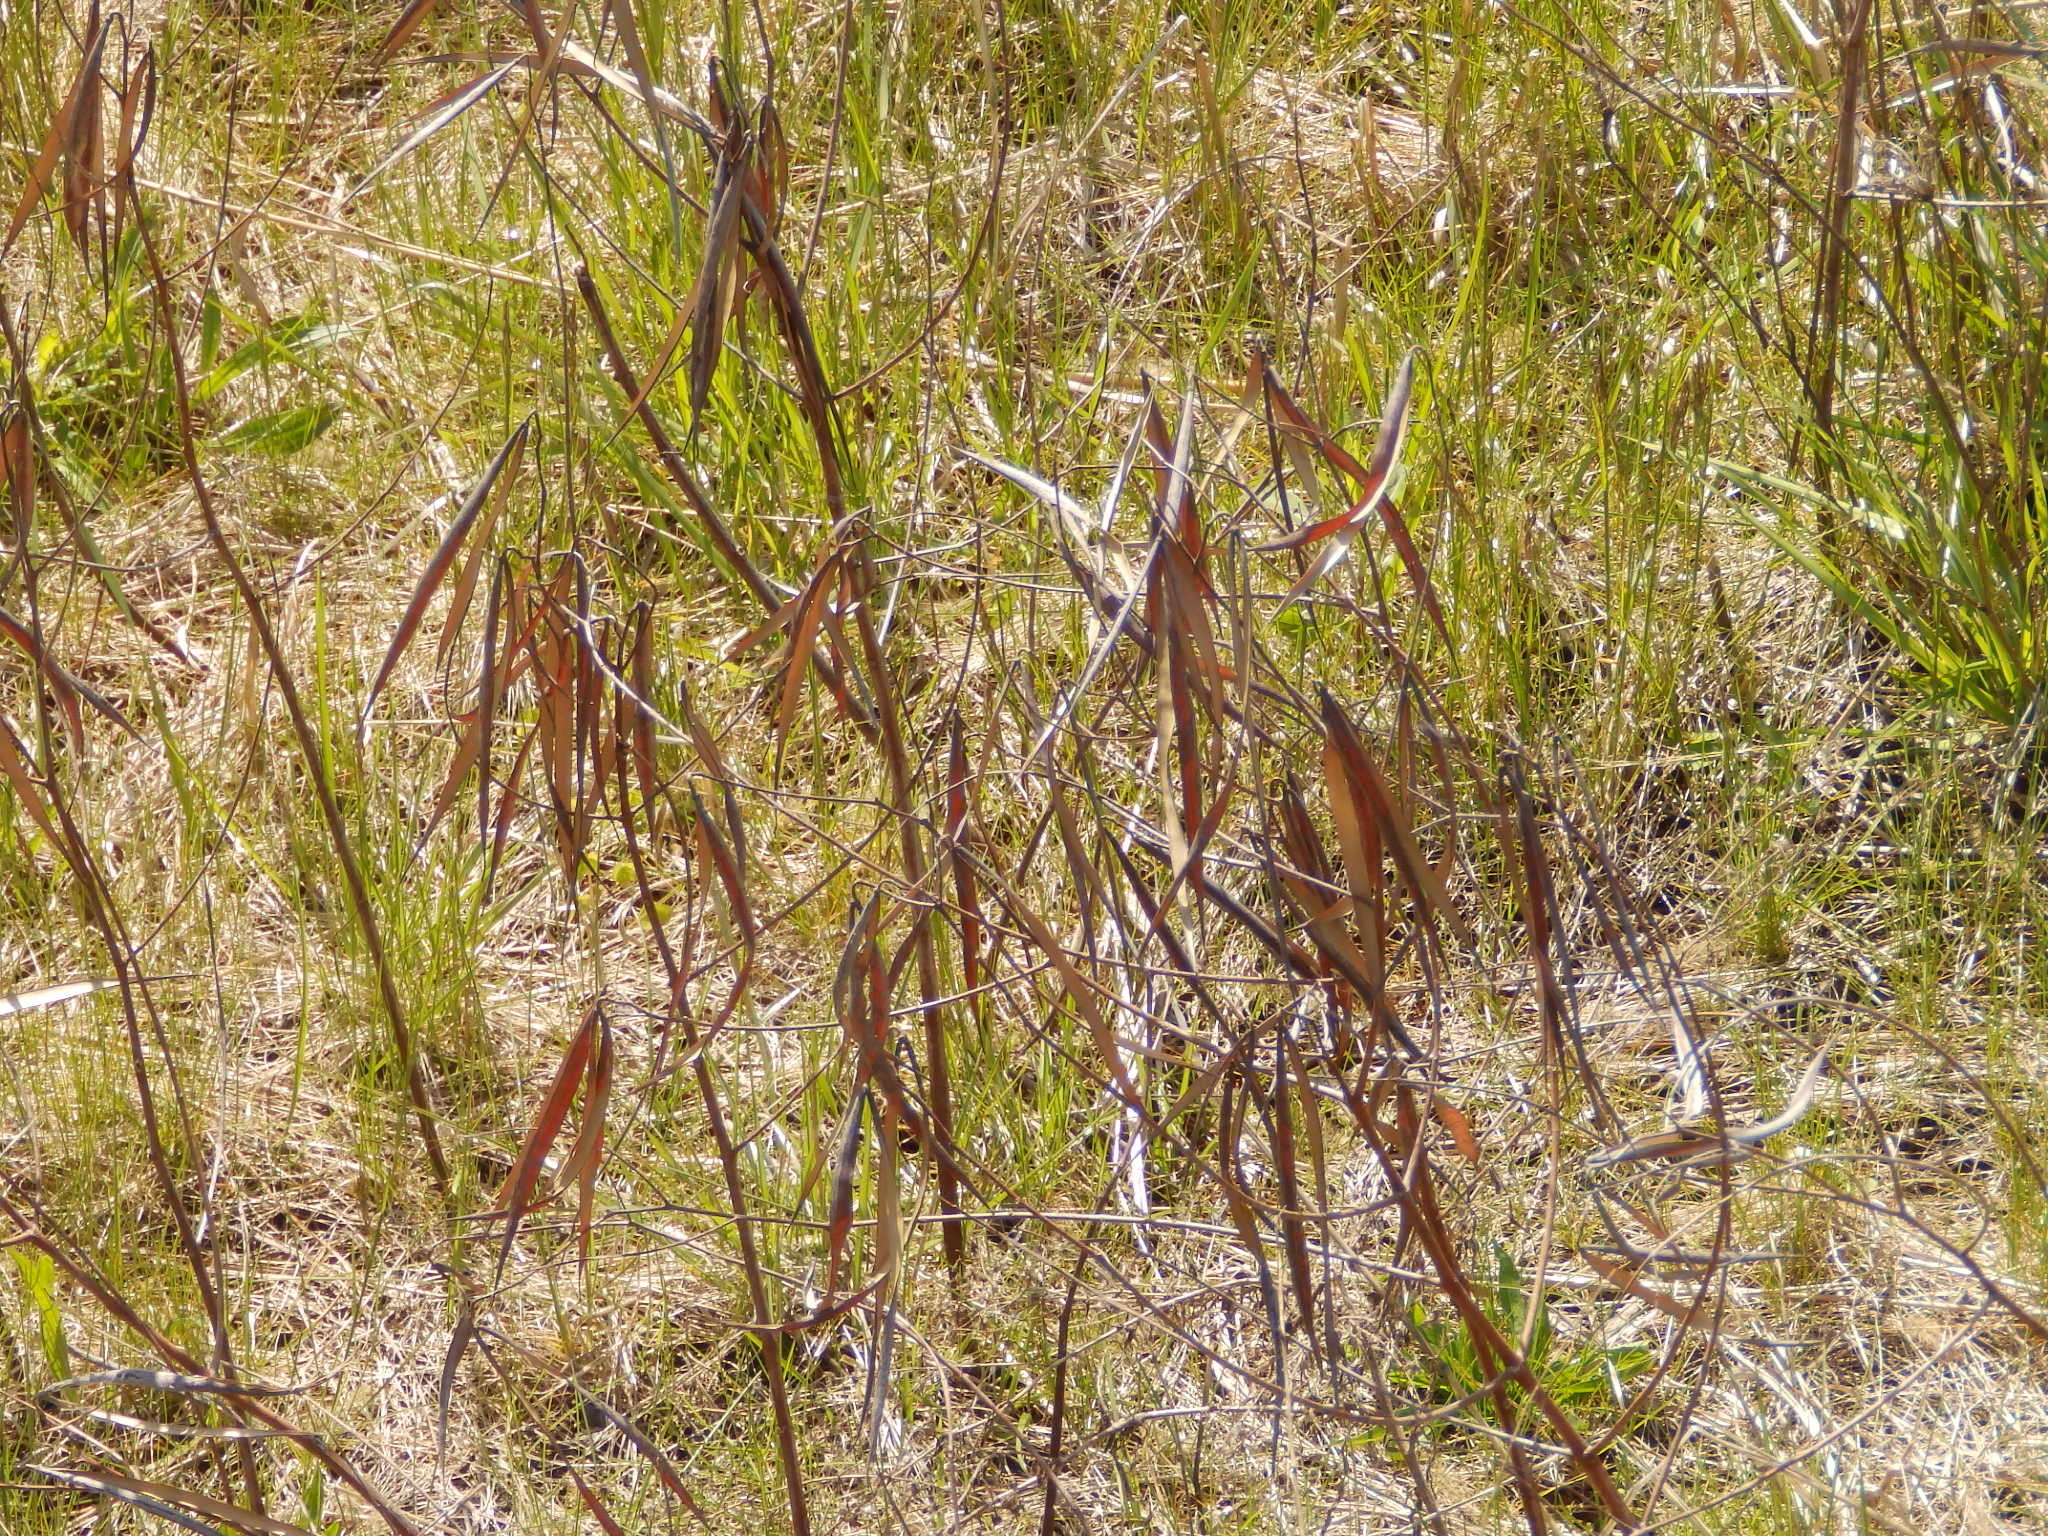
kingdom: Plantae
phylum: Tracheophyta
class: Magnoliopsida
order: Gentianales
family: Apocynaceae
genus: Apocynum
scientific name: Apocynum cannabinum
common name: Hemp dogbane
